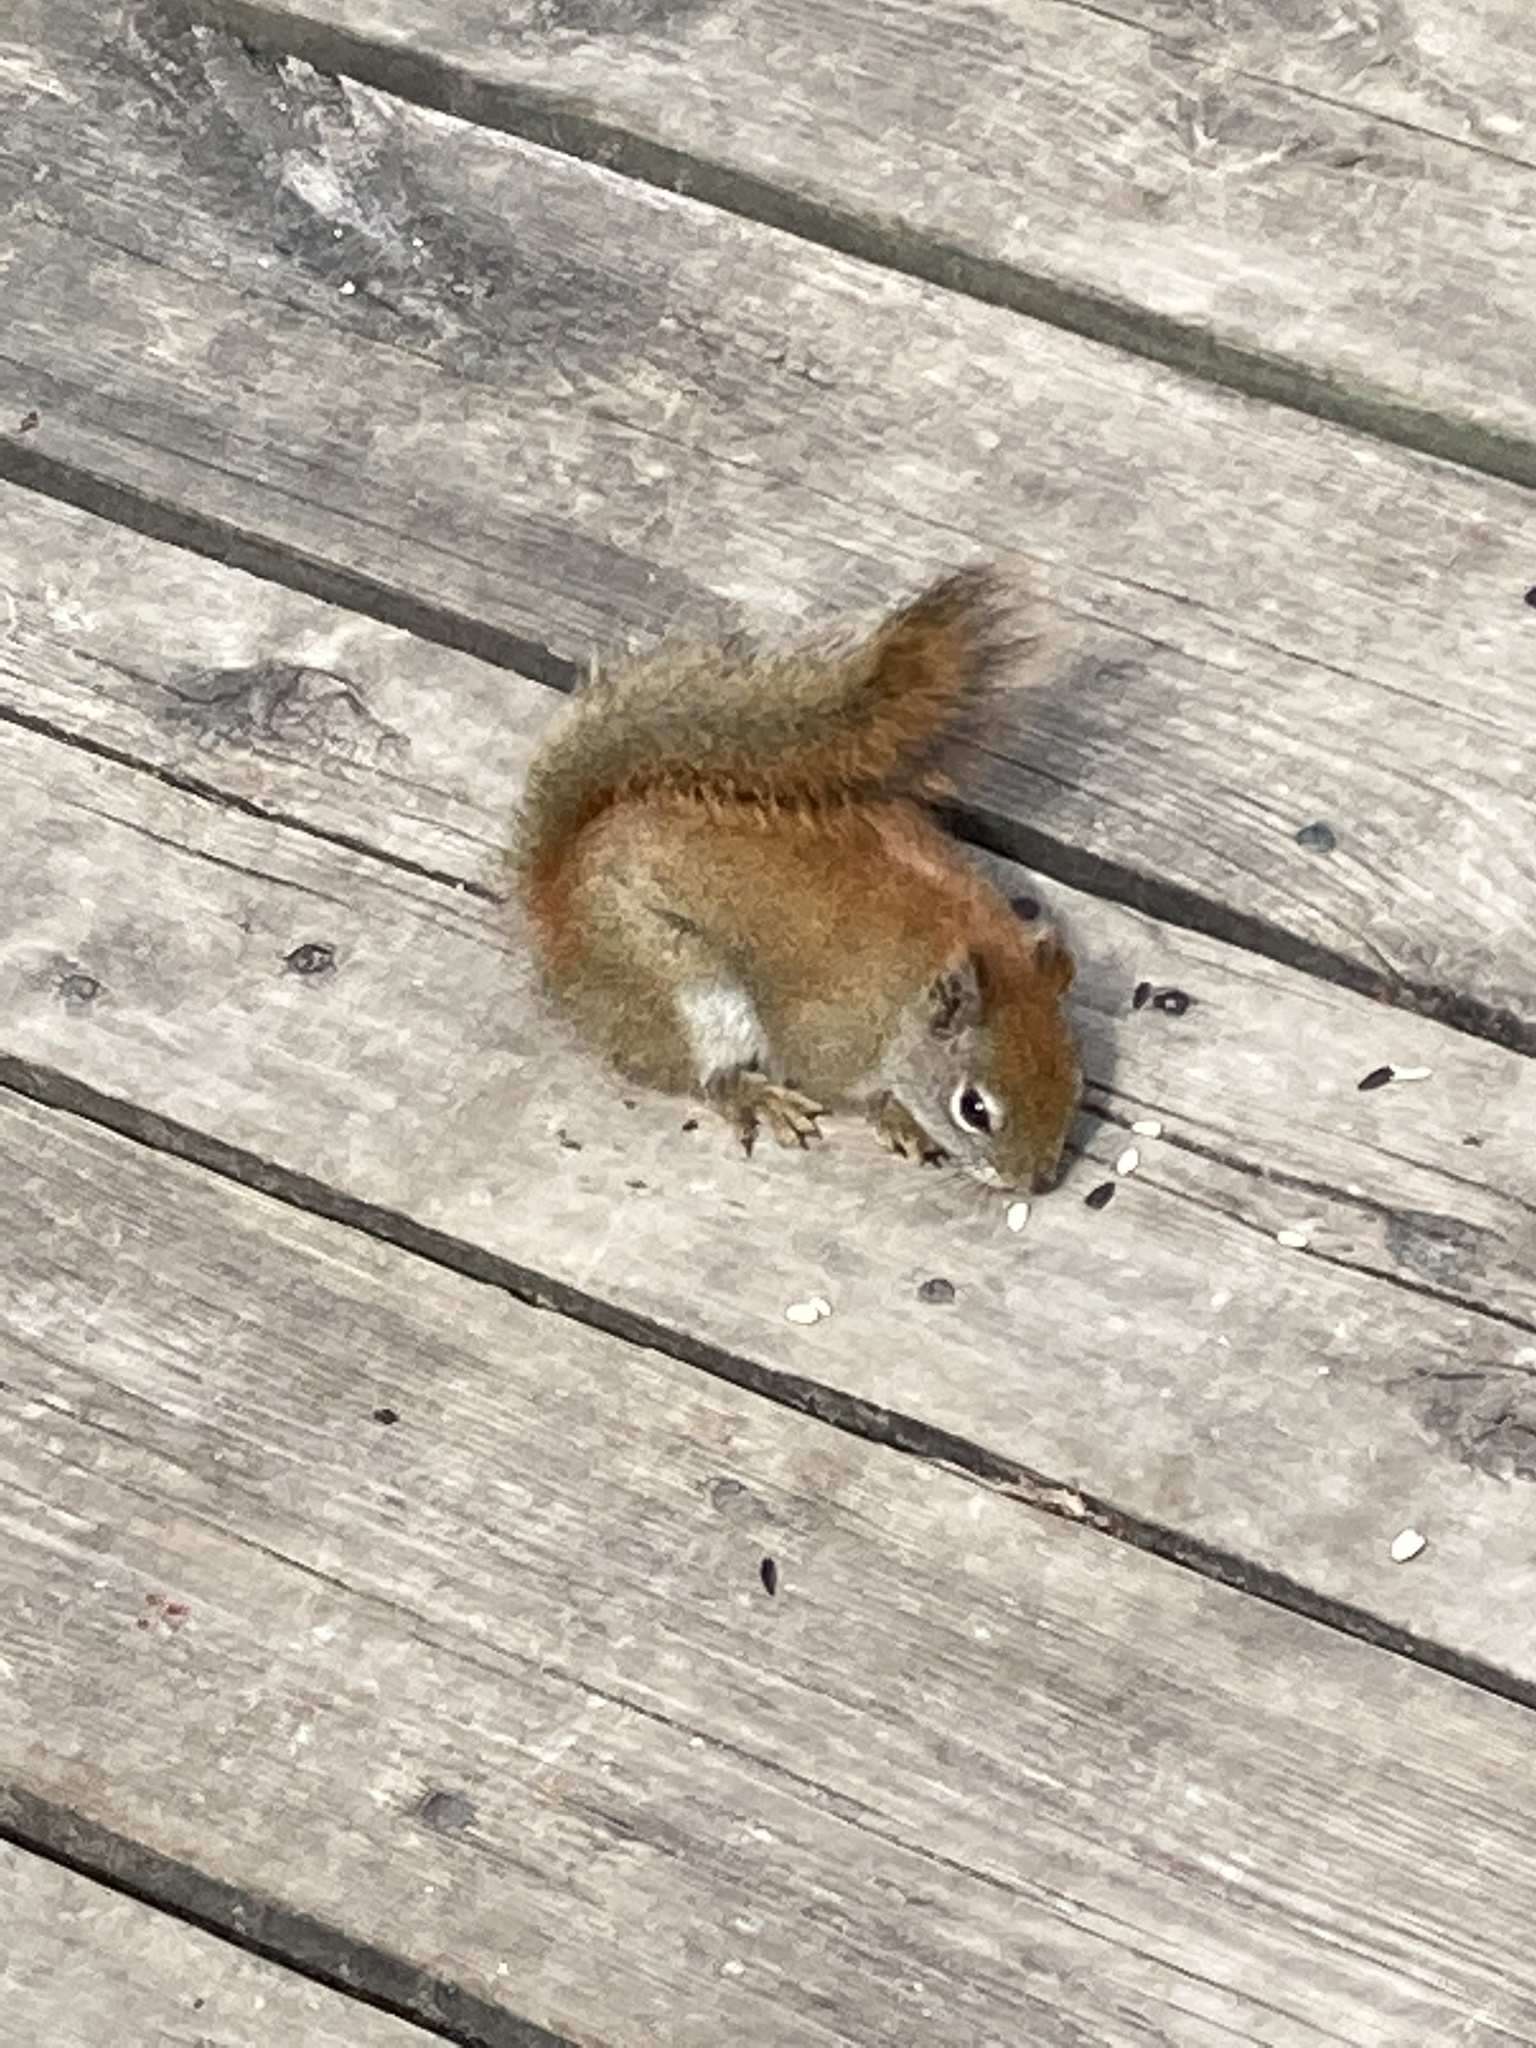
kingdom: Animalia
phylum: Chordata
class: Mammalia
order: Rodentia
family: Sciuridae
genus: Tamiasciurus
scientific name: Tamiasciurus hudsonicus
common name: Red squirrel
